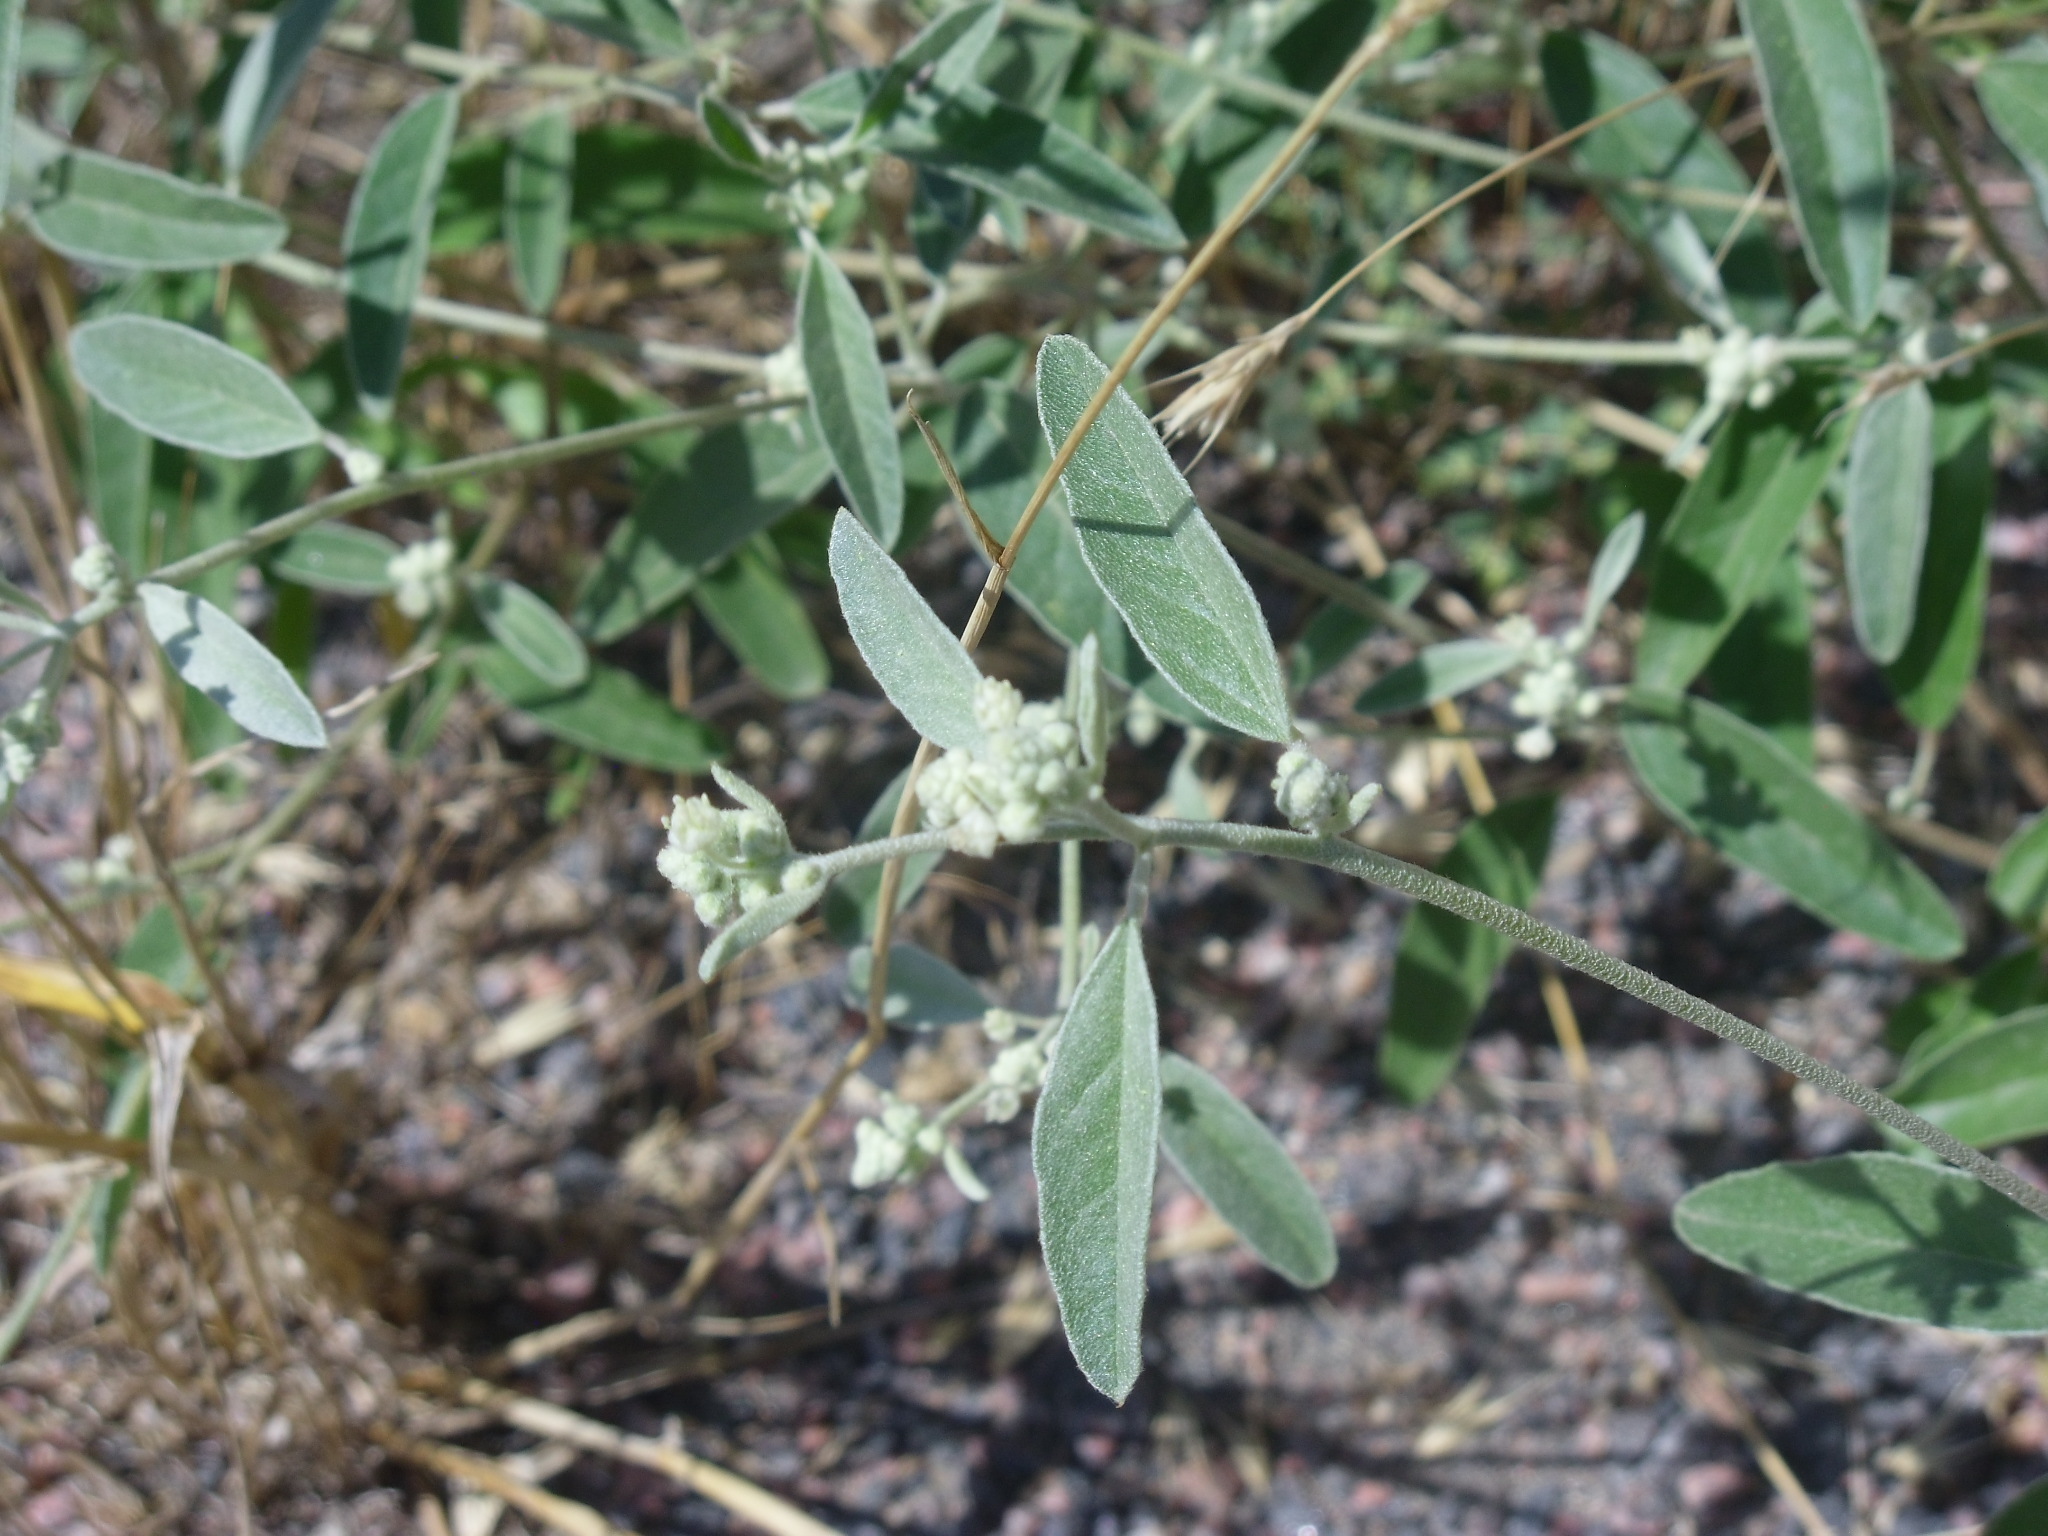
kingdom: Plantae
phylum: Tracheophyta
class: Magnoliopsida
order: Malpighiales
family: Euphorbiaceae
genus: Croton
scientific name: Croton texensis
